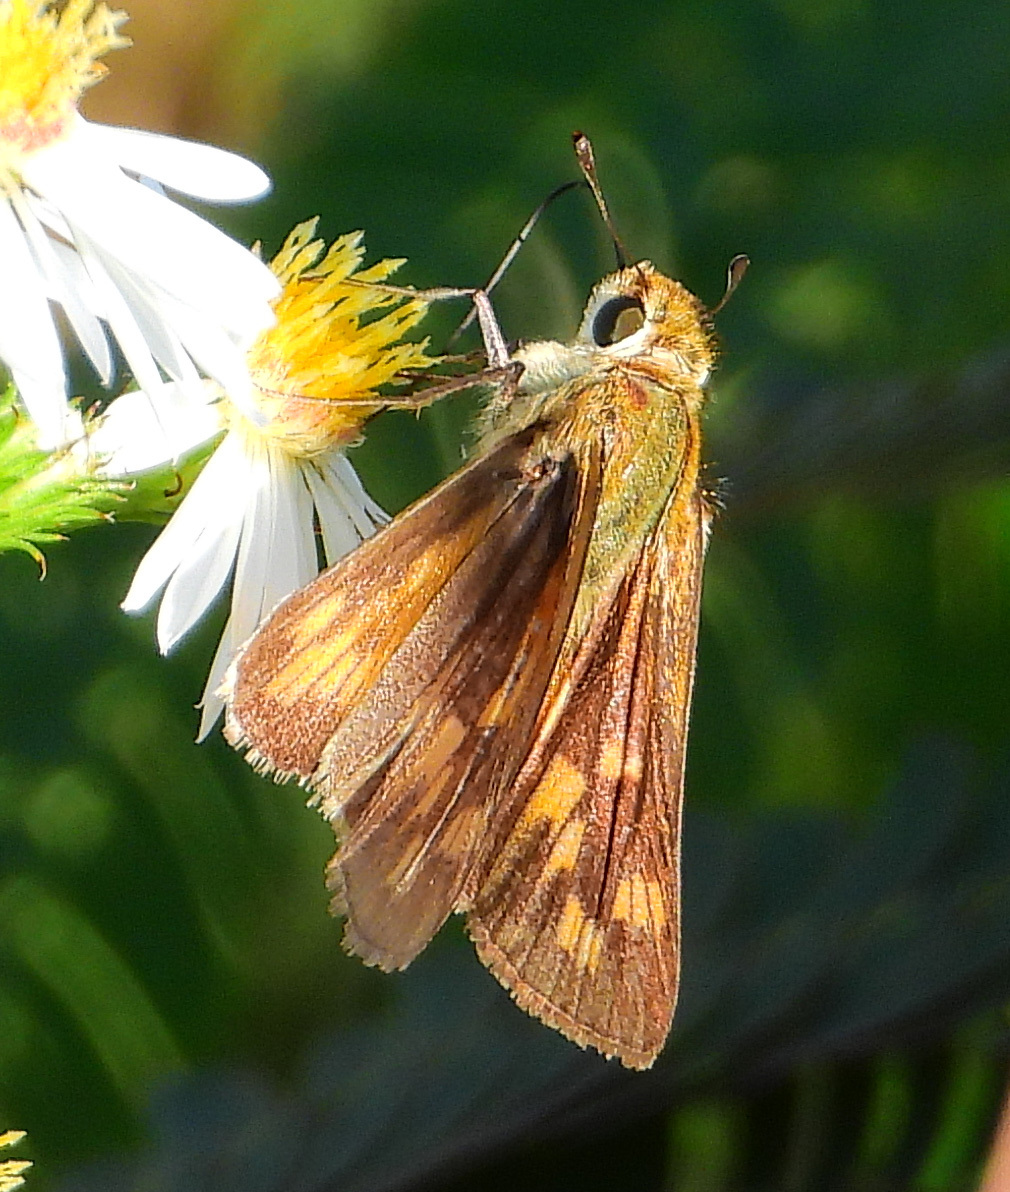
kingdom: Animalia
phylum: Arthropoda
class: Insecta
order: Lepidoptera
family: Hesperiidae
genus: Hylephila
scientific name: Hylephila phyleus
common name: Fiery skipper
